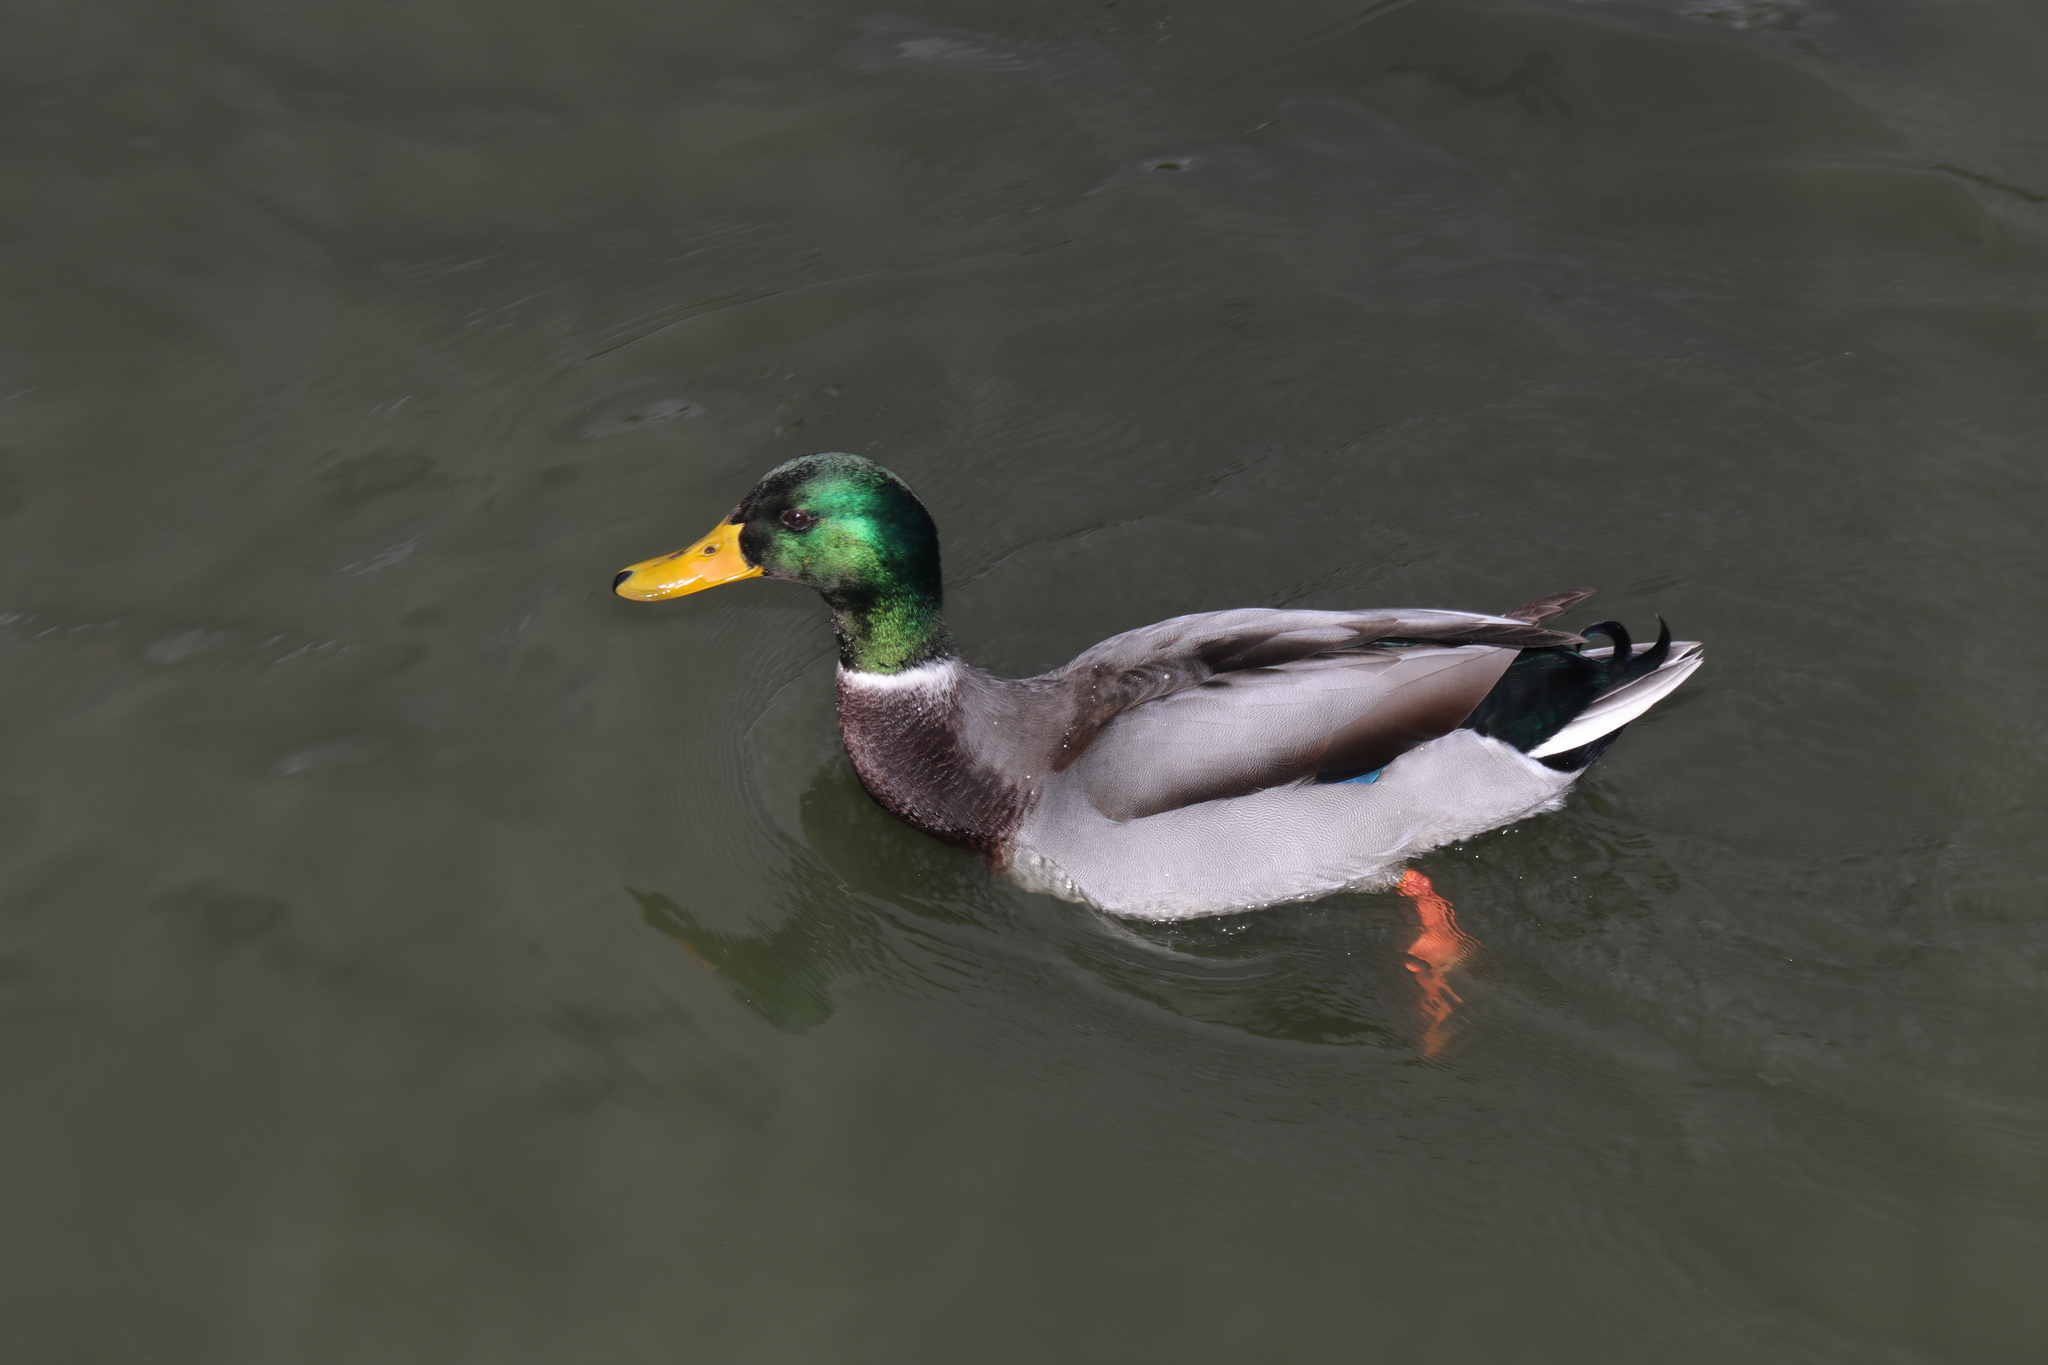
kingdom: Animalia
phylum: Chordata
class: Aves
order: Anseriformes
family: Anatidae
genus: Anas
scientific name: Anas platyrhynchos
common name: Mallard
